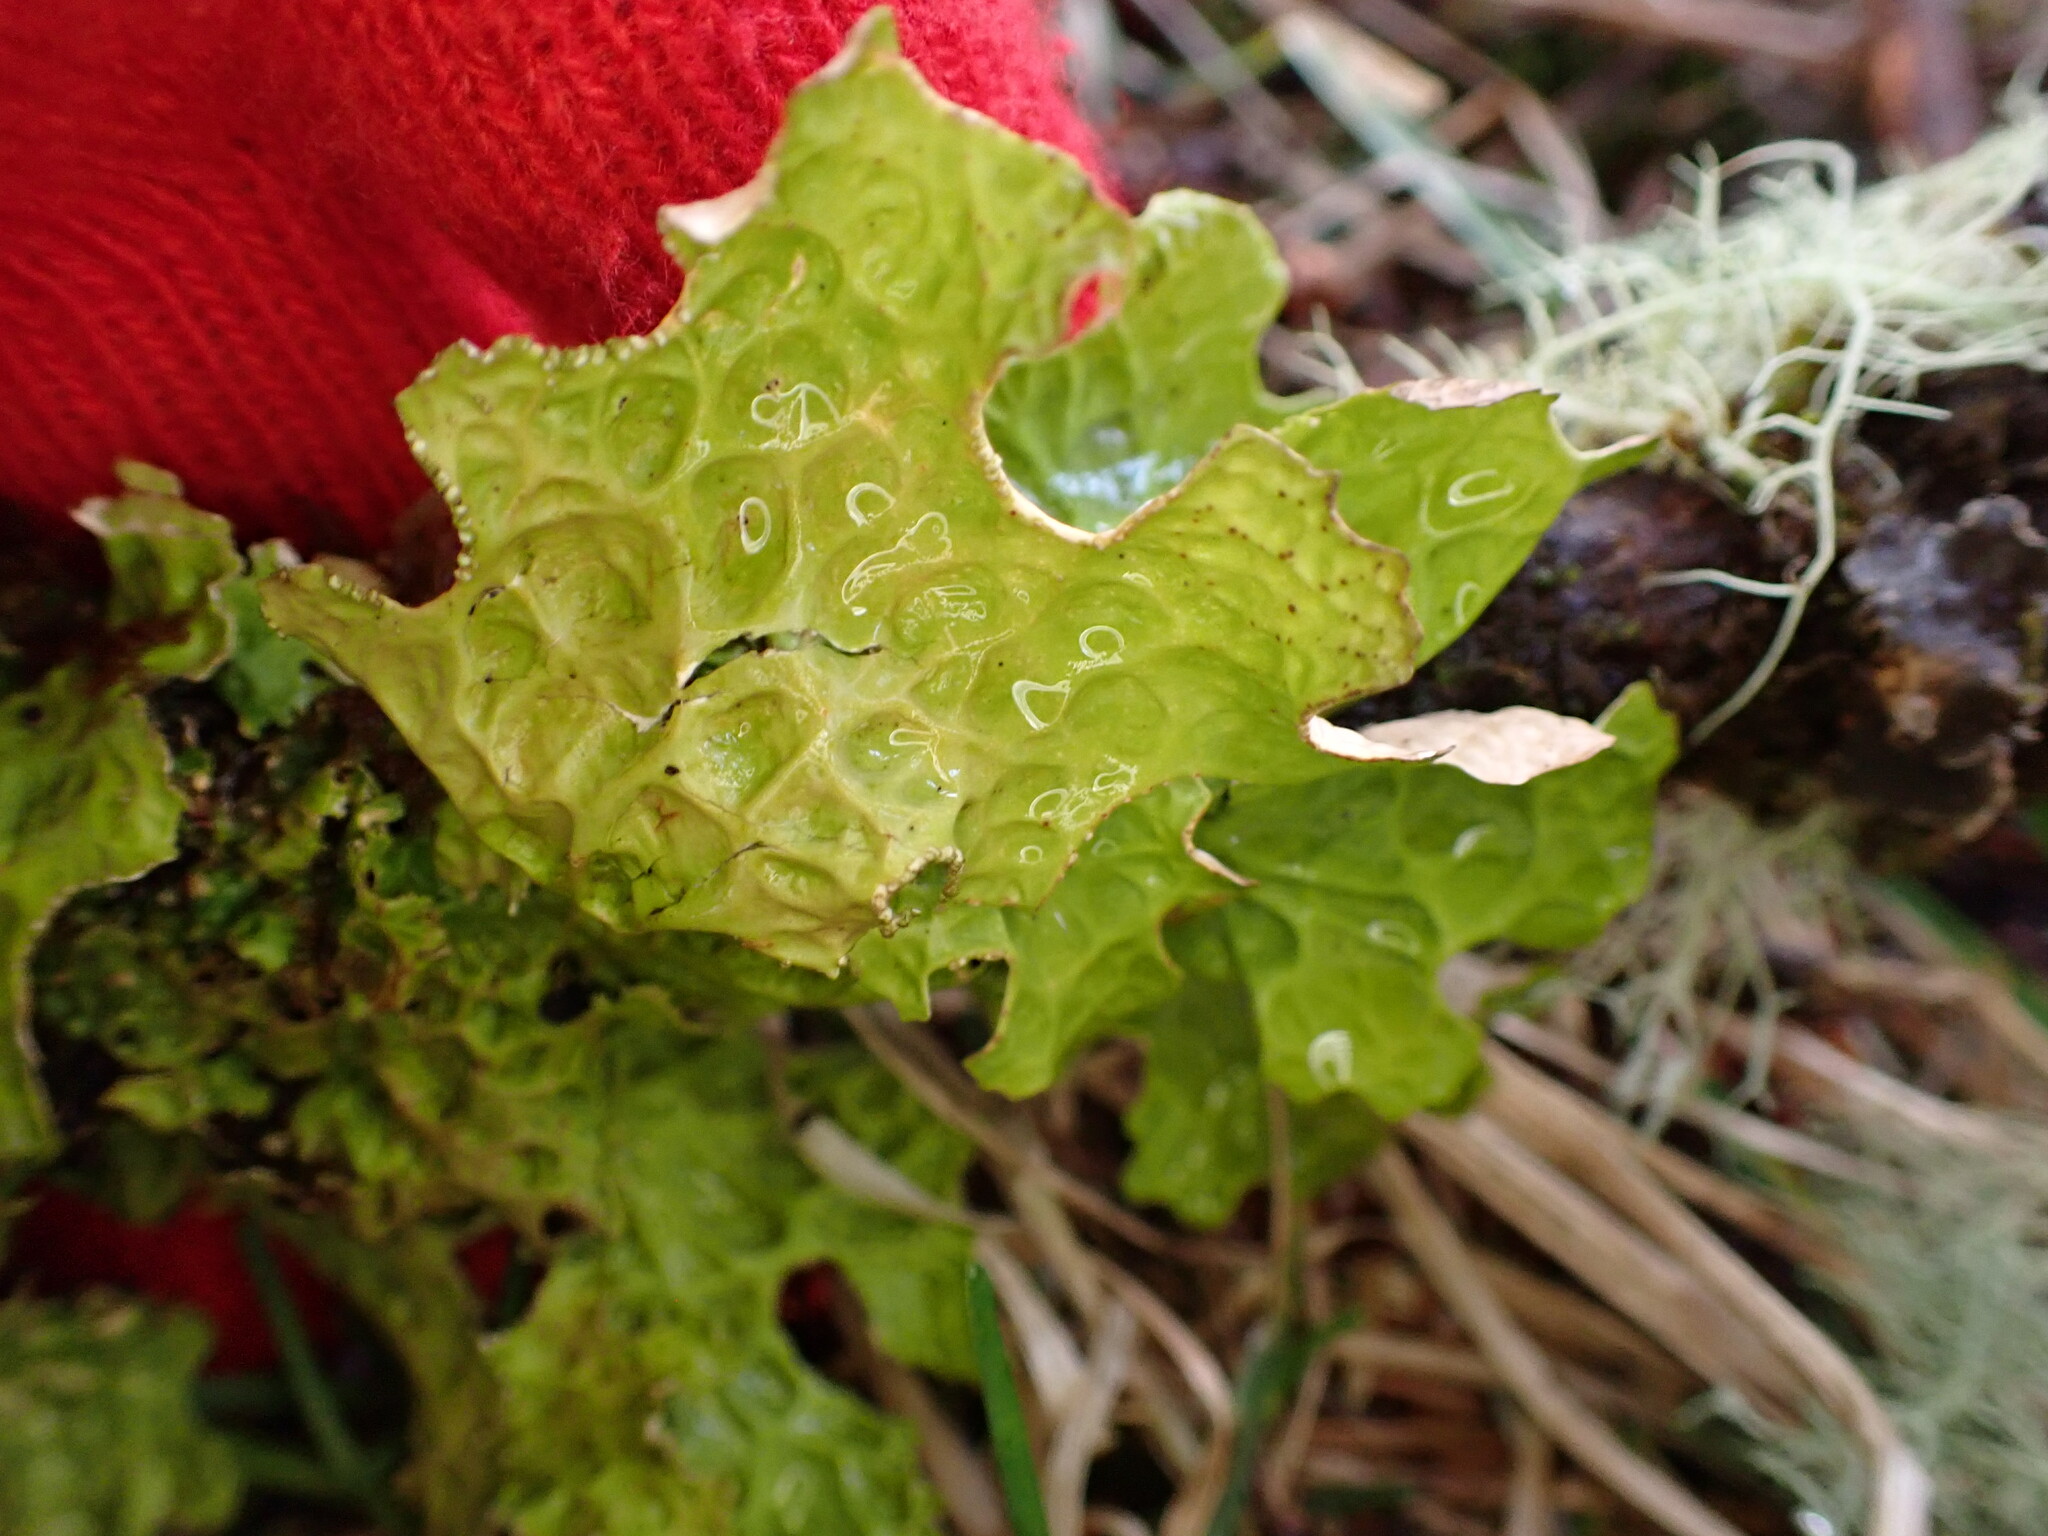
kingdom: Fungi
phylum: Ascomycota
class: Lecanoromycetes
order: Peltigerales
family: Lobariaceae
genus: Lobaria
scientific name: Lobaria pulmonaria
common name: Lungwort
